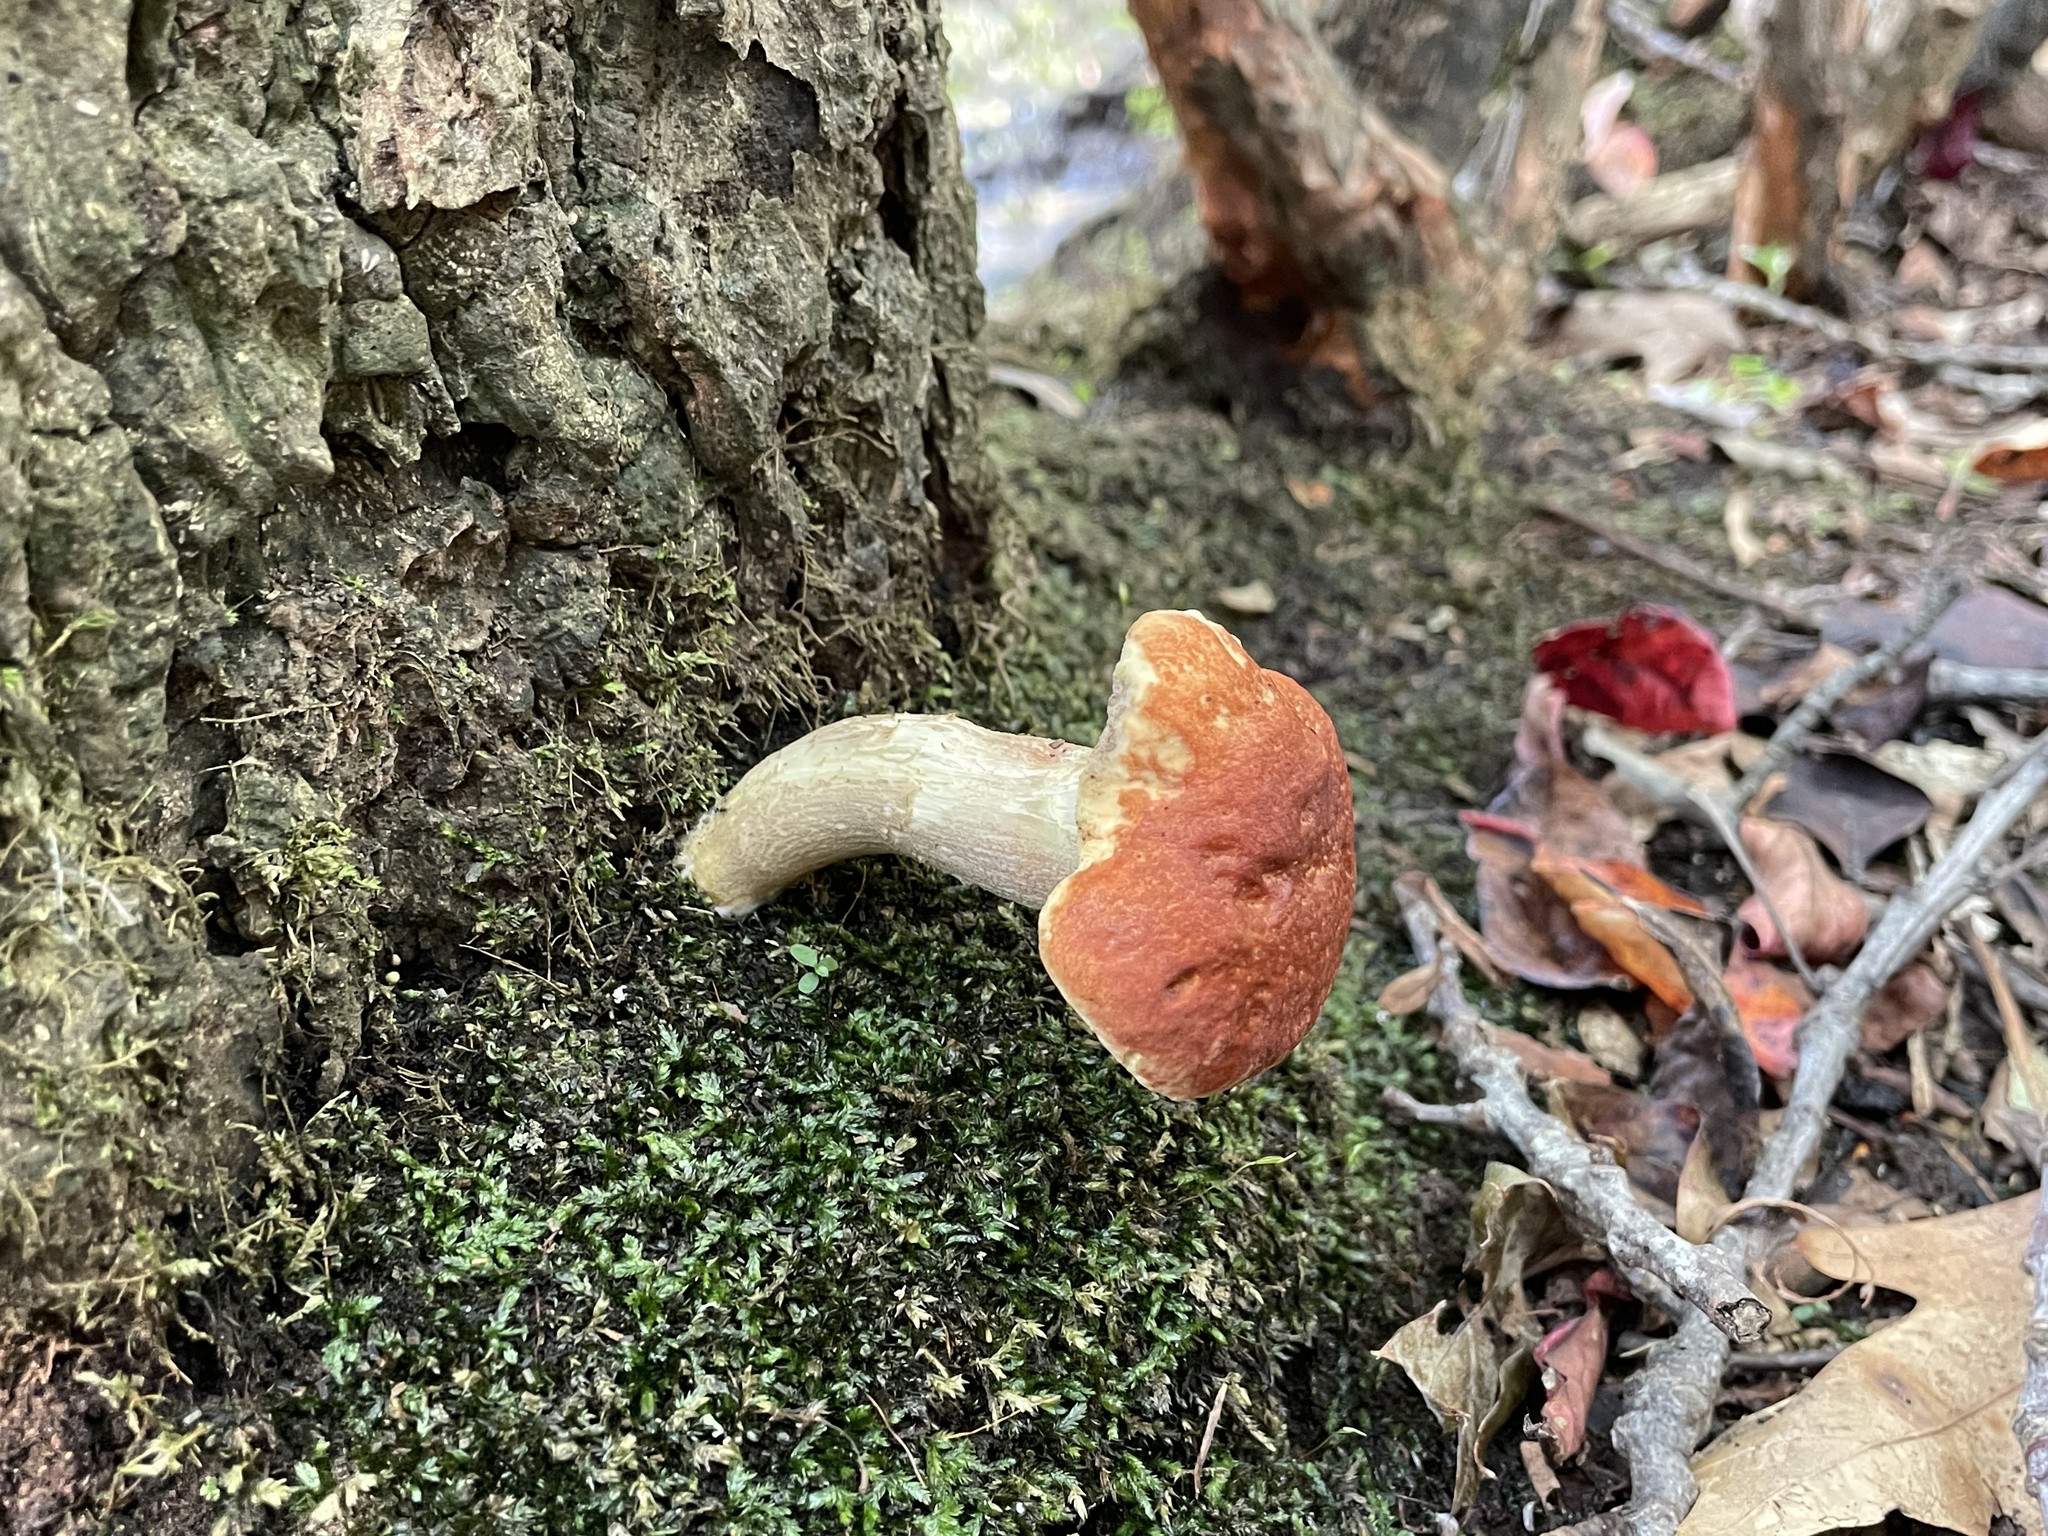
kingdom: Fungi
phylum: Basidiomycota
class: Agaricomycetes
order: Boletales
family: Boletaceae
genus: Leccinum
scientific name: Leccinum longicurvipes
